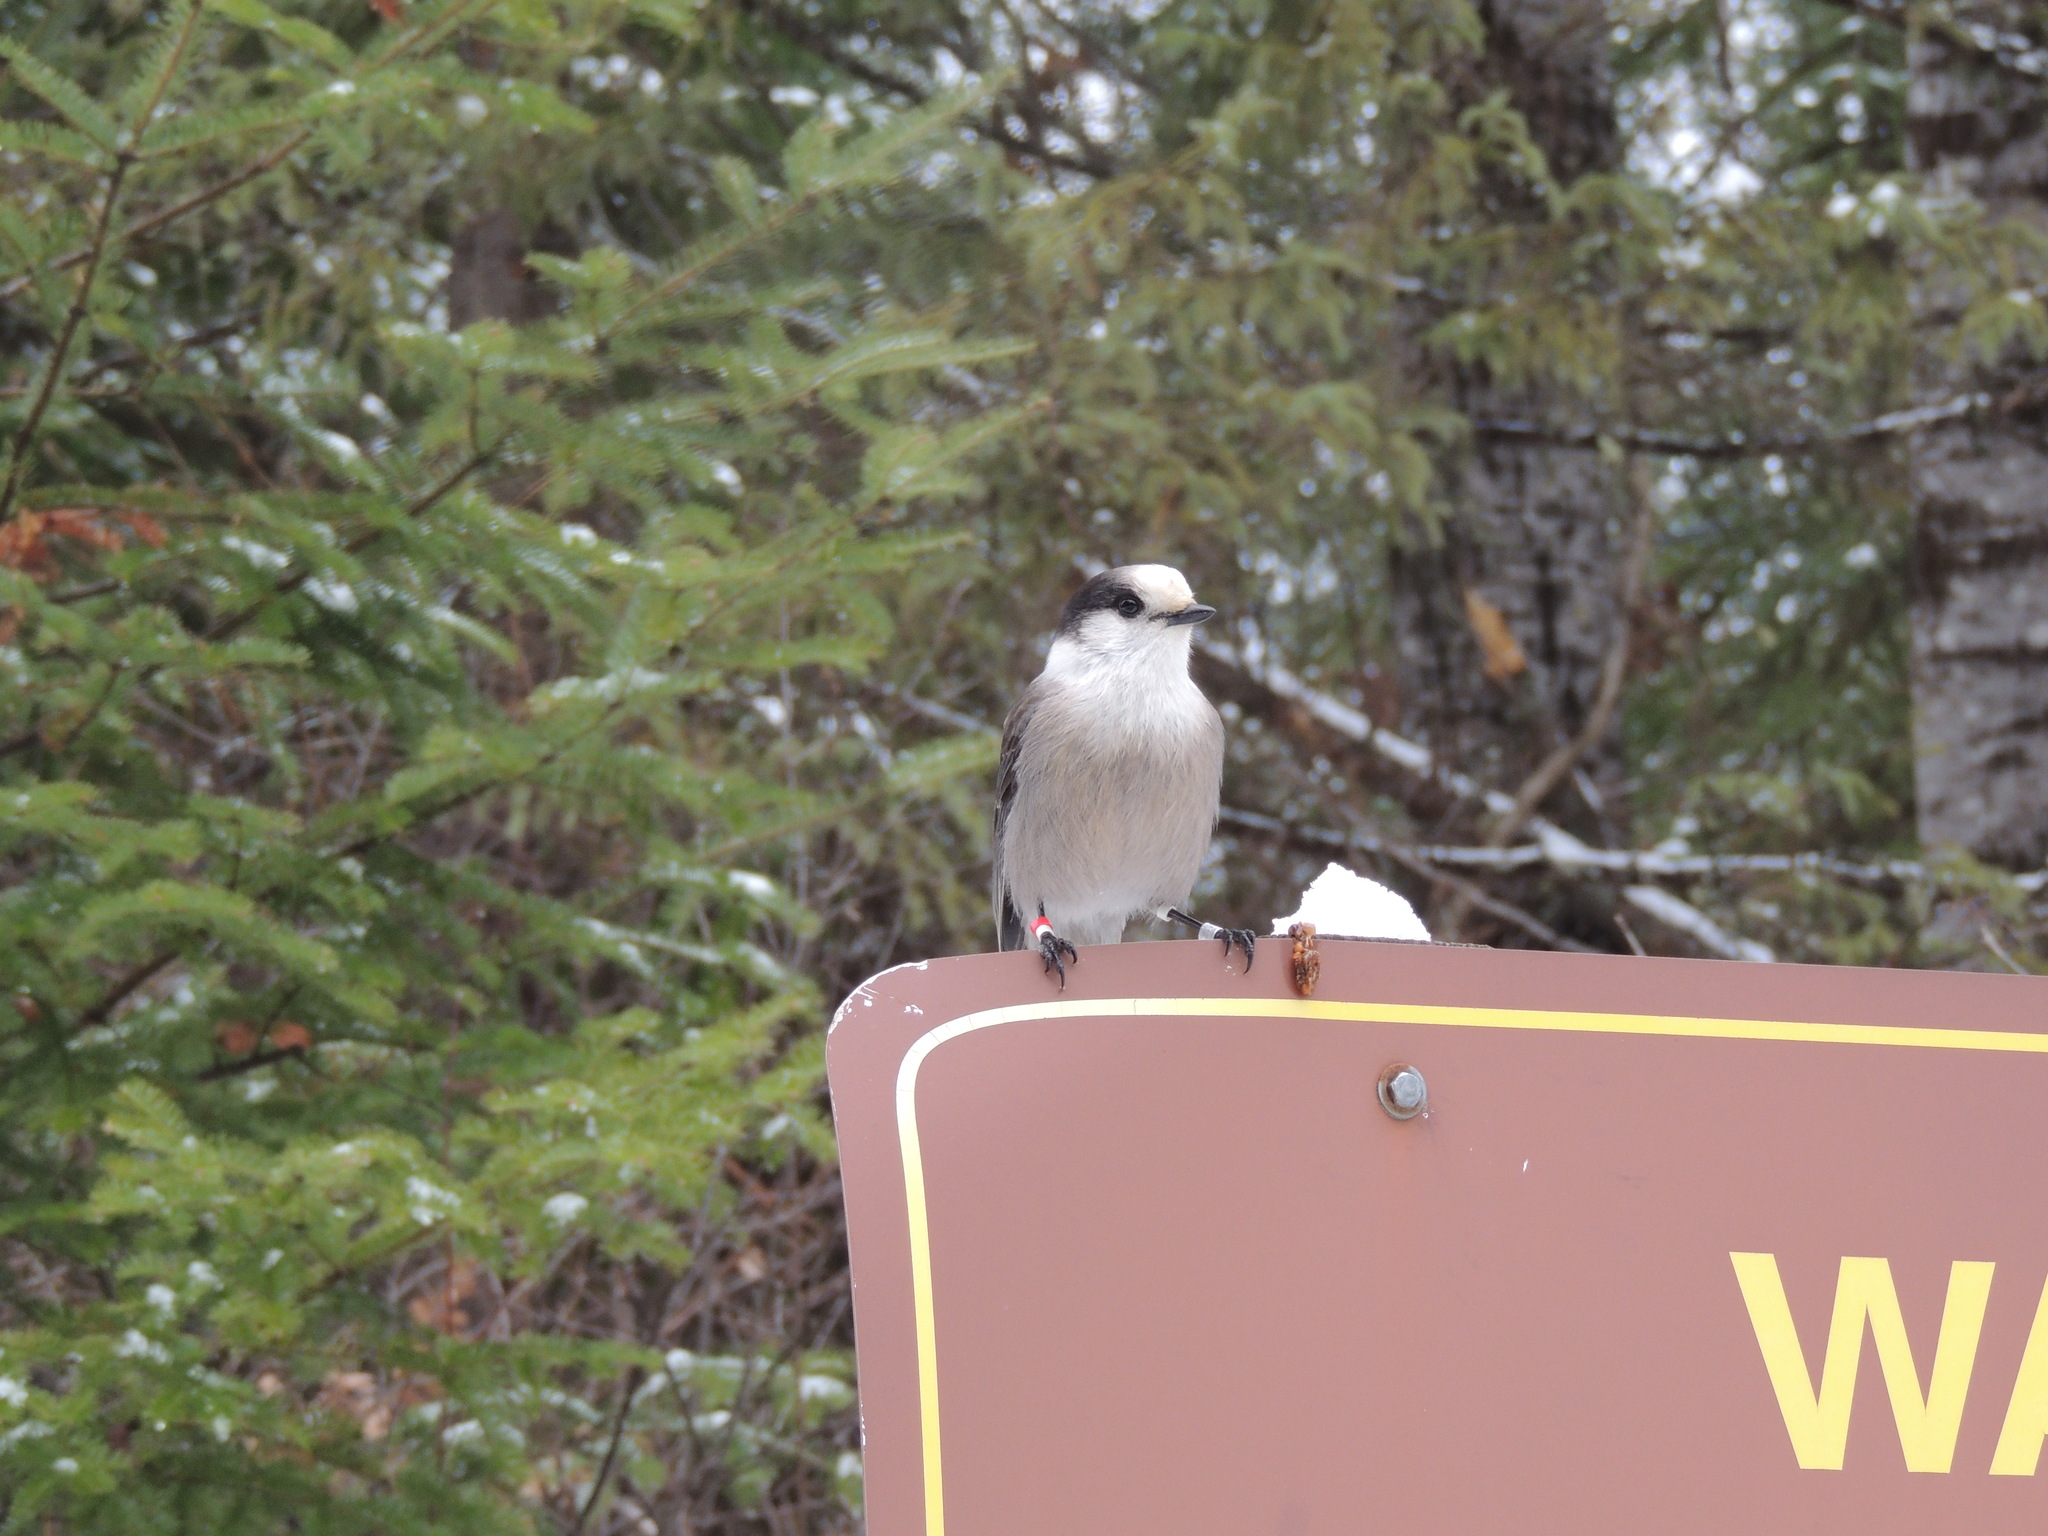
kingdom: Animalia
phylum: Chordata
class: Aves
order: Passeriformes
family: Corvidae
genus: Perisoreus
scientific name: Perisoreus canadensis
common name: Gray jay
